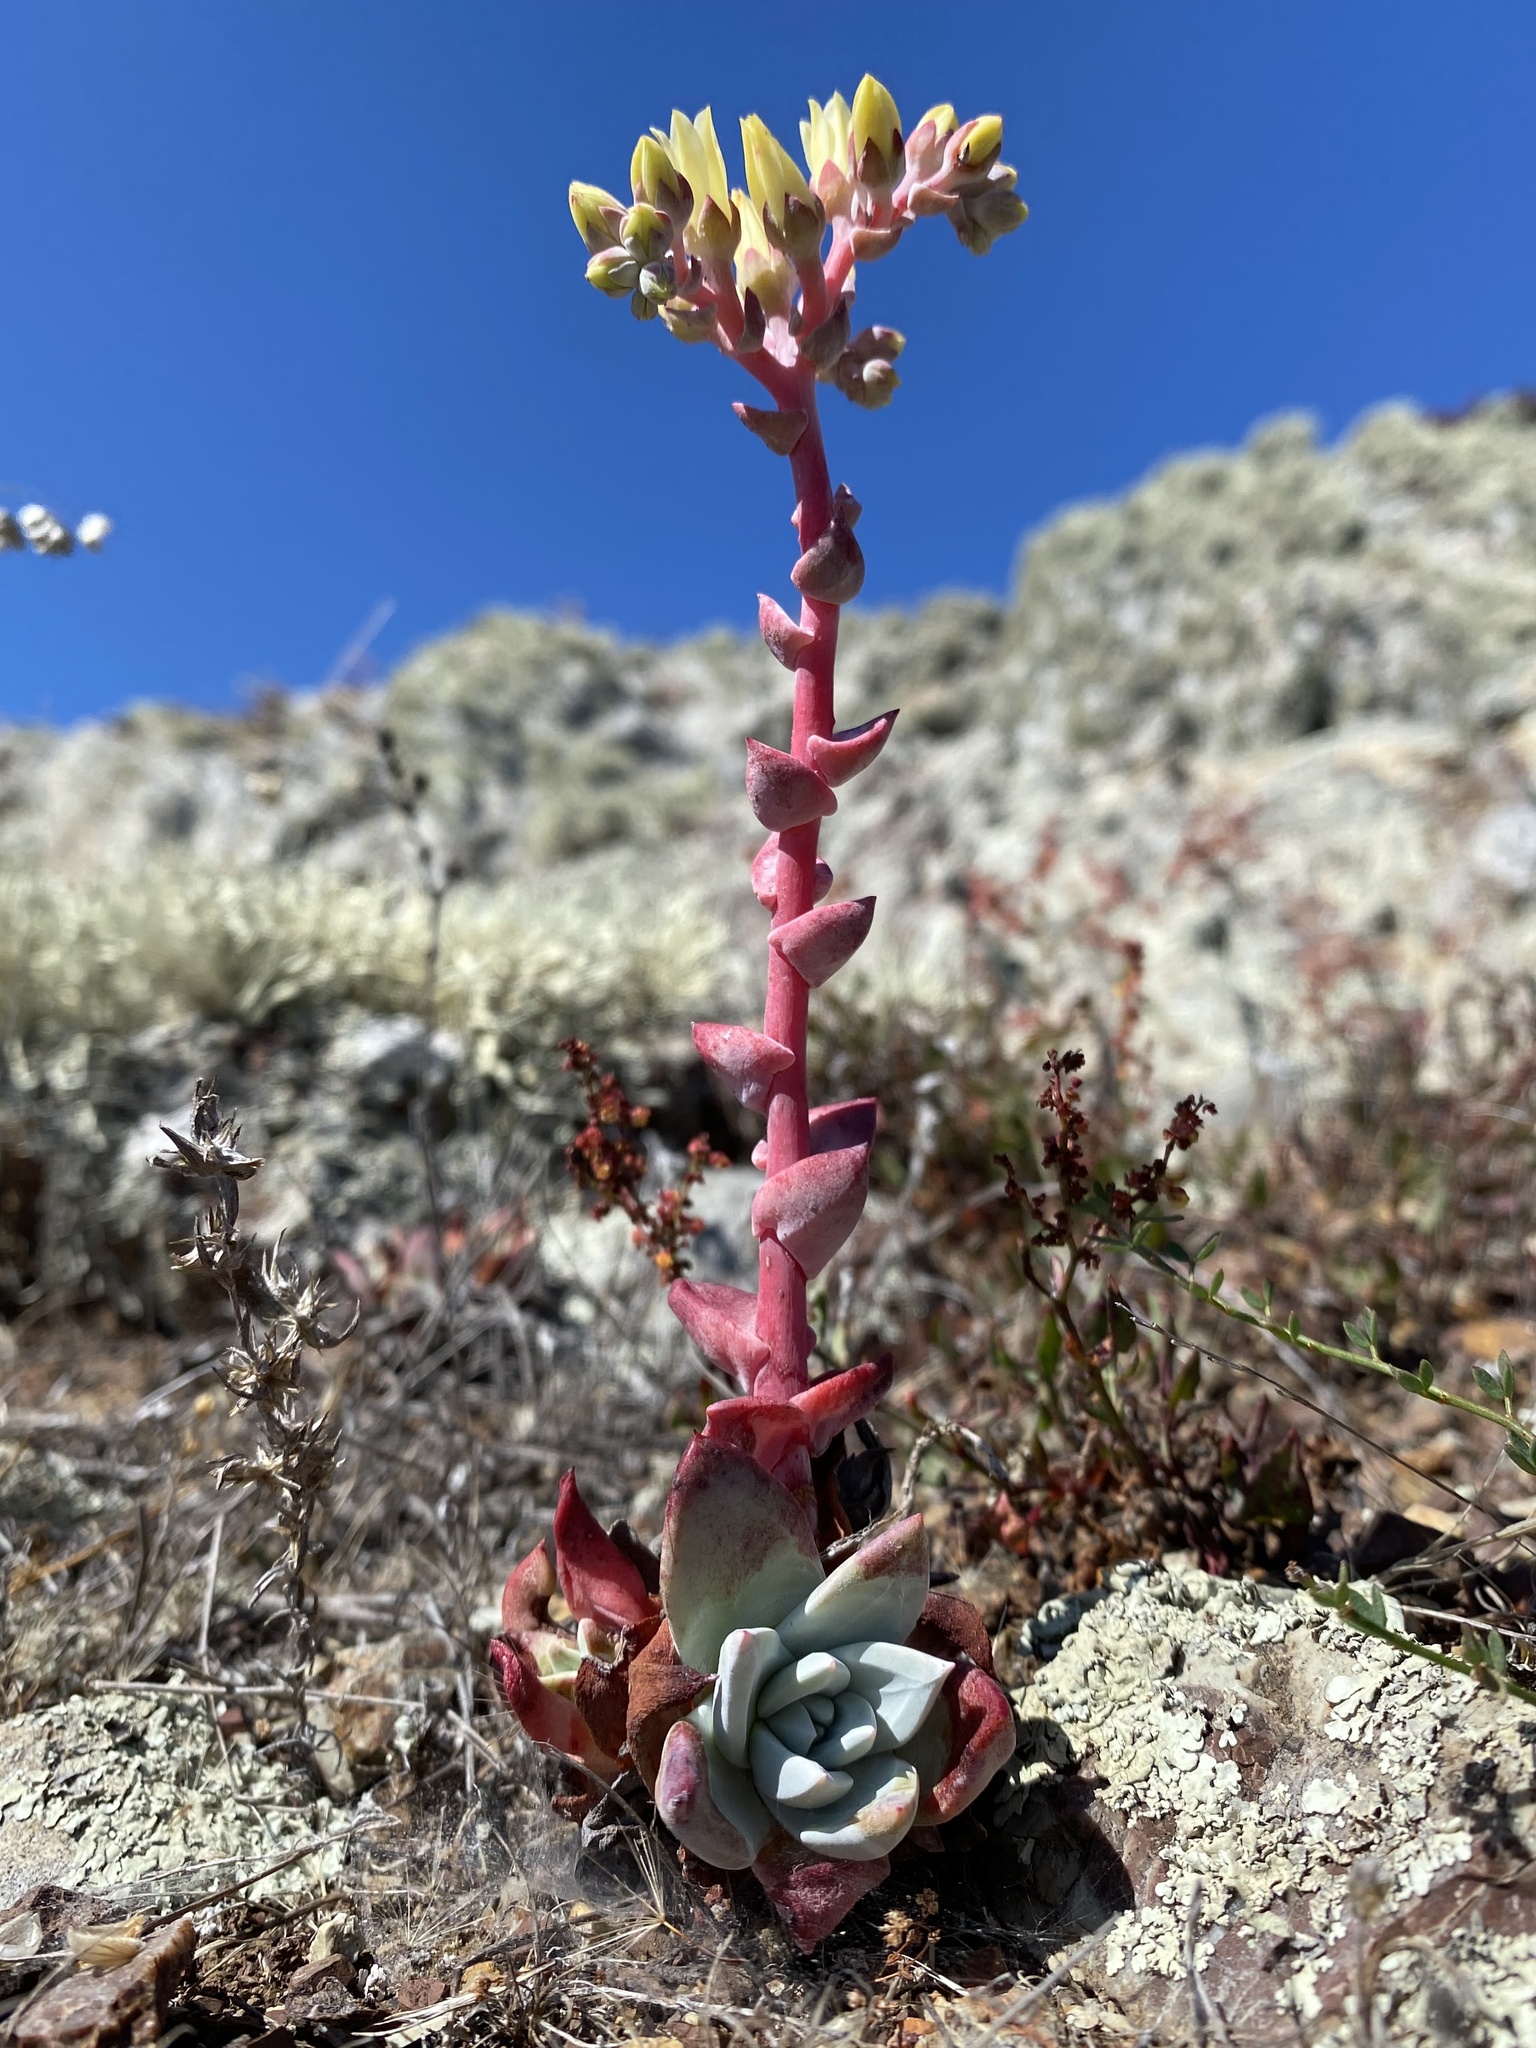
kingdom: Plantae
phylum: Tracheophyta
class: Magnoliopsida
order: Saxifragales
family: Crassulaceae
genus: Dudleya
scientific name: Dudleya farinosa
